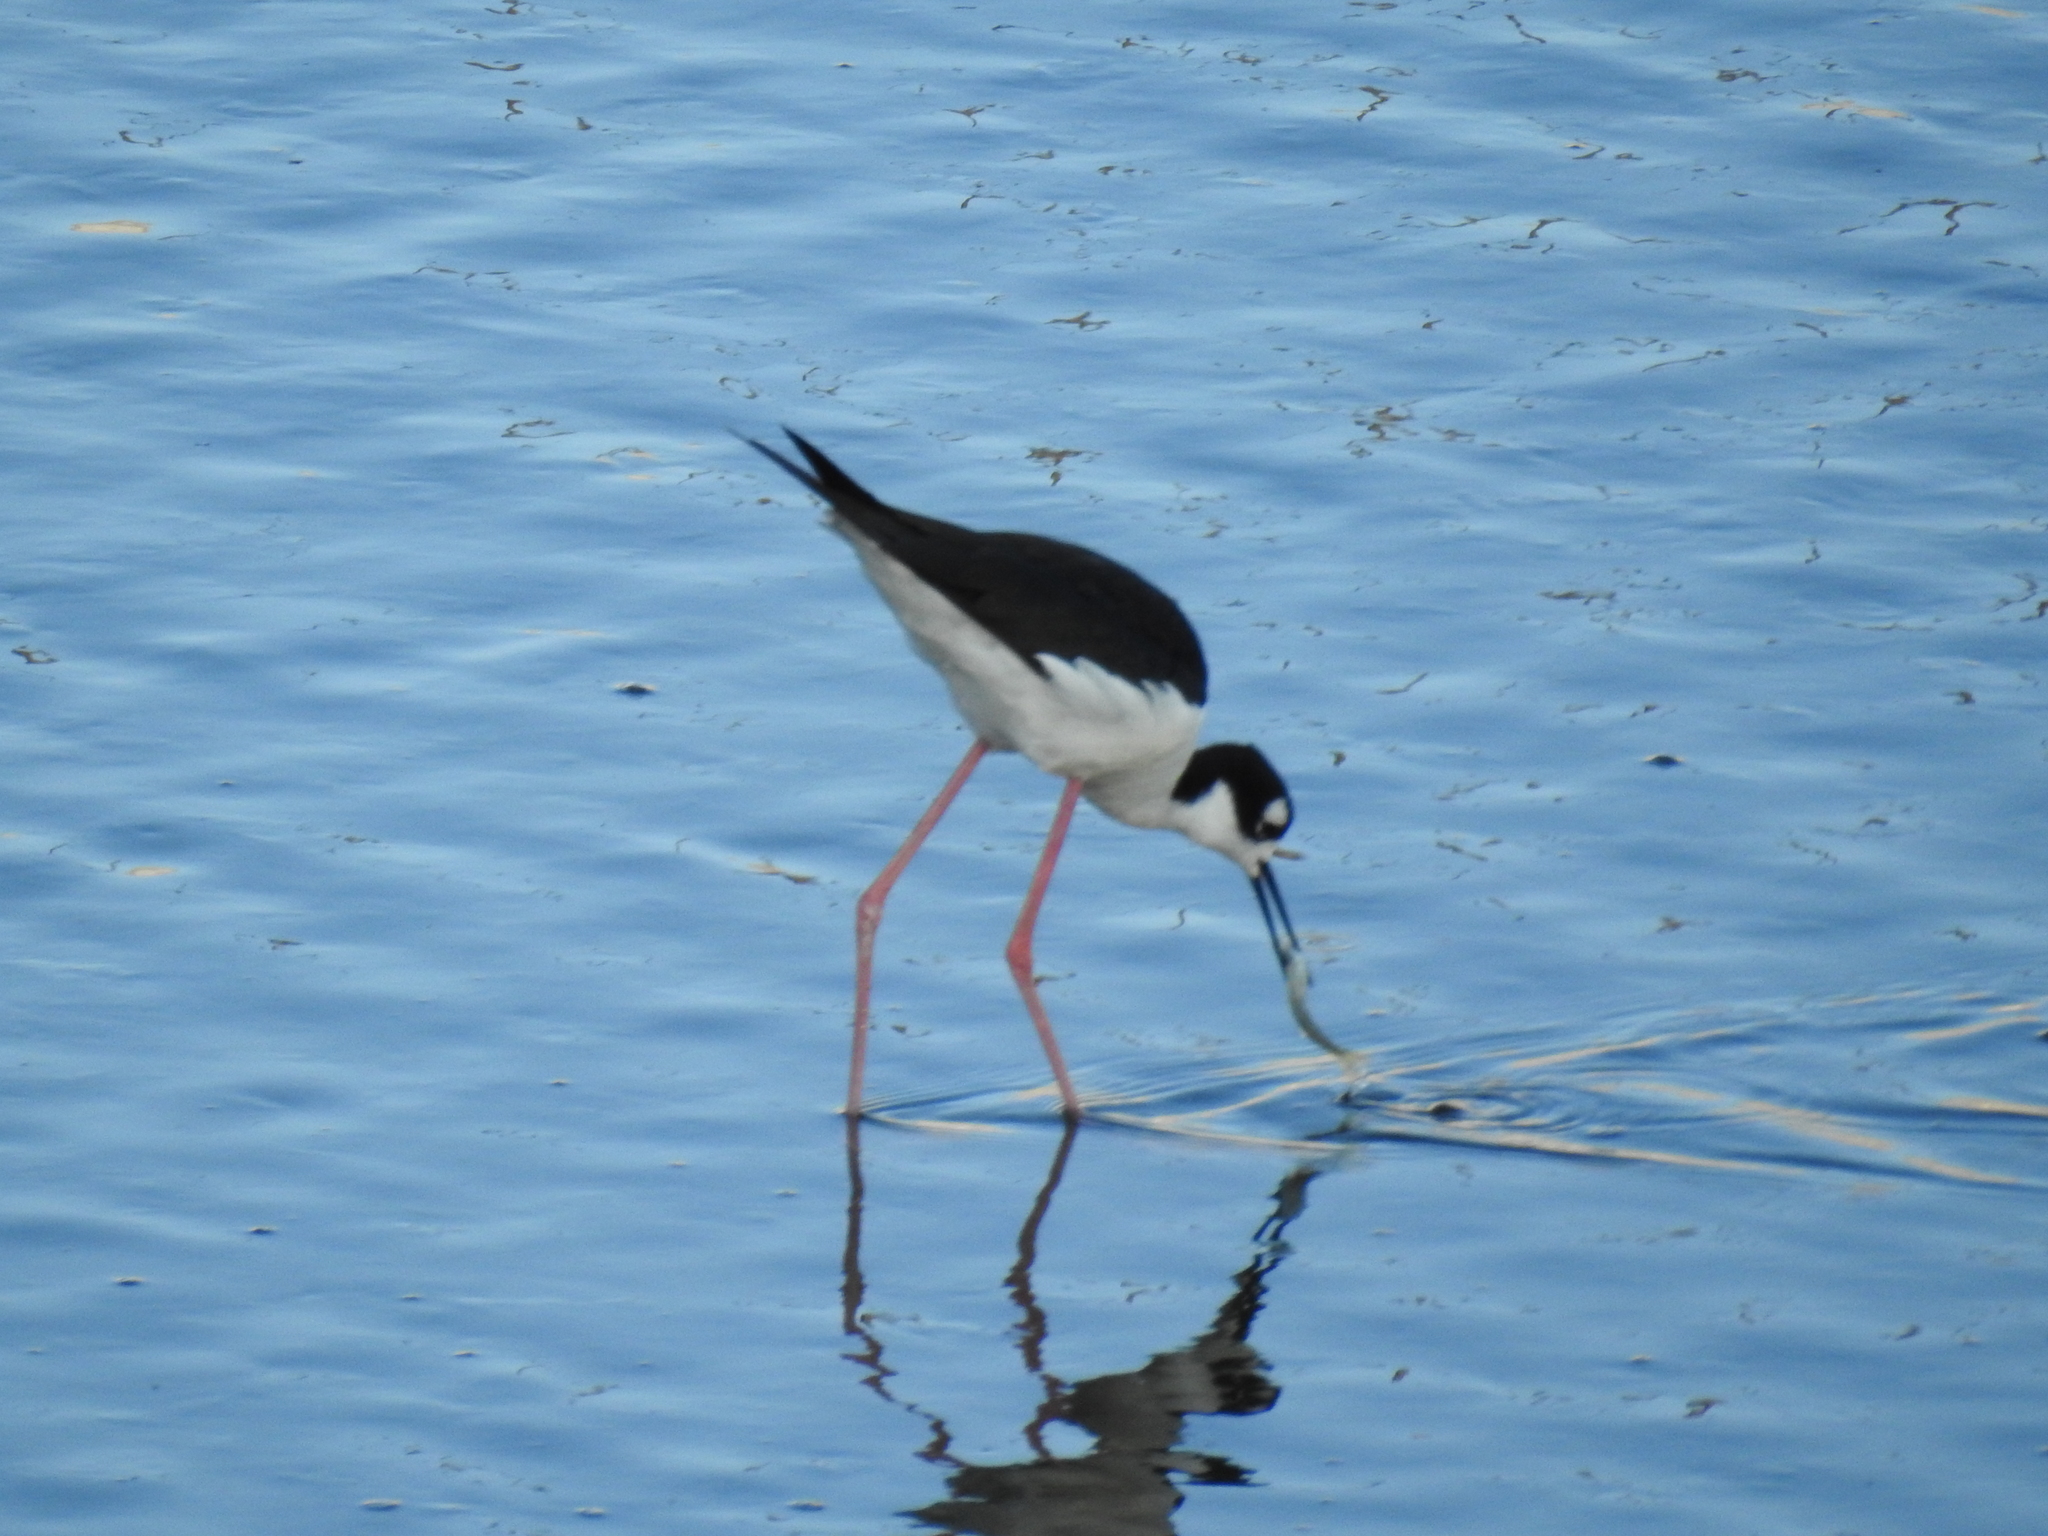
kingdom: Animalia
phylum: Chordata
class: Aves
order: Charadriiformes
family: Recurvirostridae
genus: Himantopus
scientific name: Himantopus mexicanus
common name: Black-necked stilt
